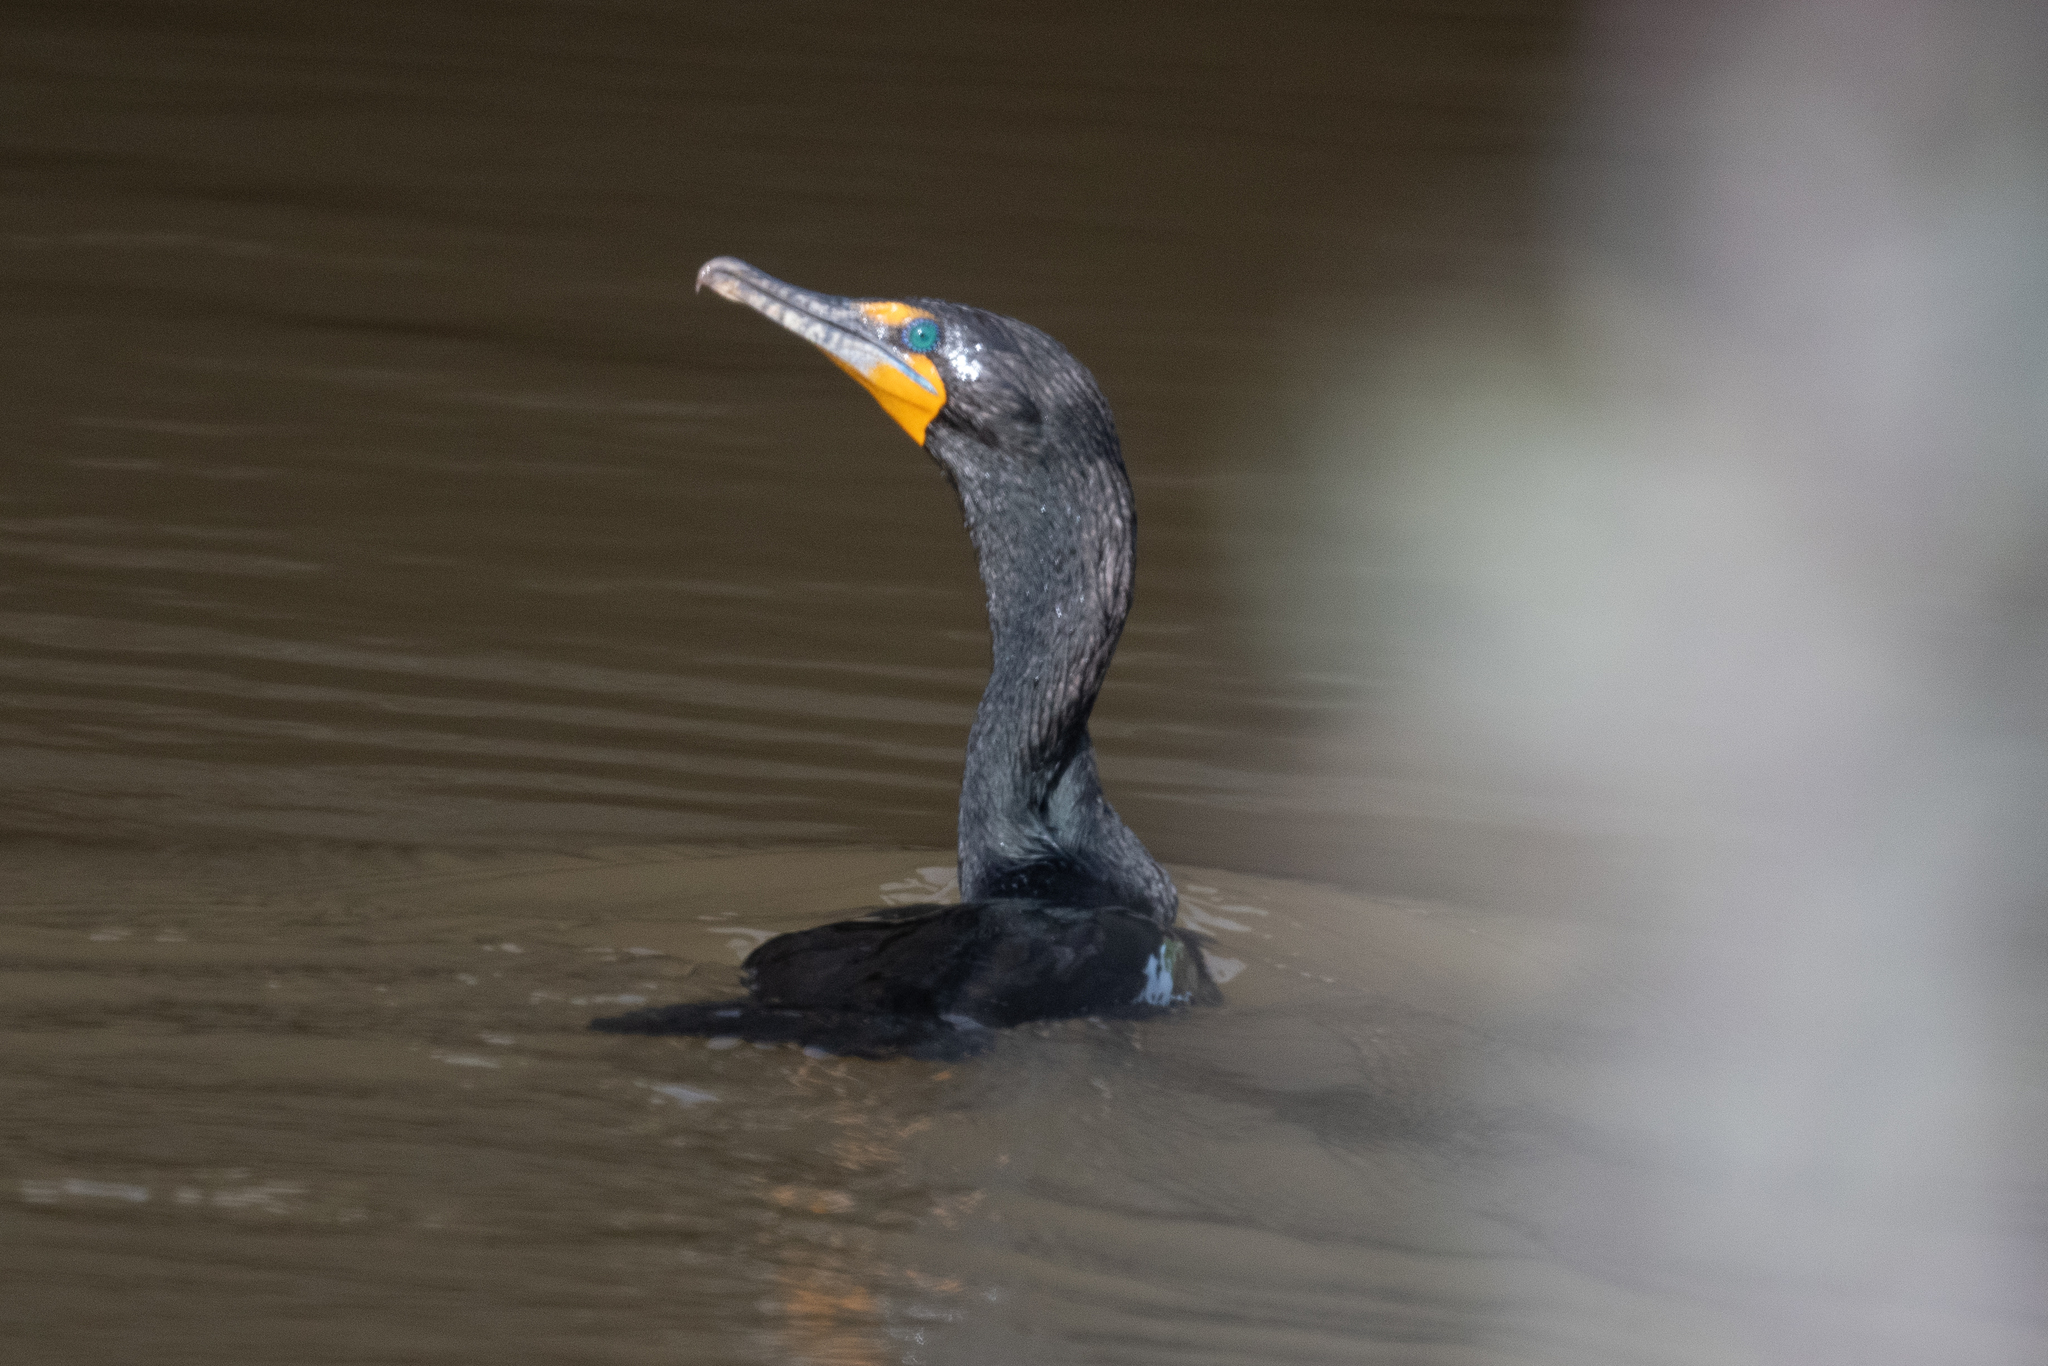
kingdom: Animalia
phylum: Chordata
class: Aves
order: Suliformes
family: Phalacrocoracidae
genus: Phalacrocorax
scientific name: Phalacrocorax auritus
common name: Double-crested cormorant
